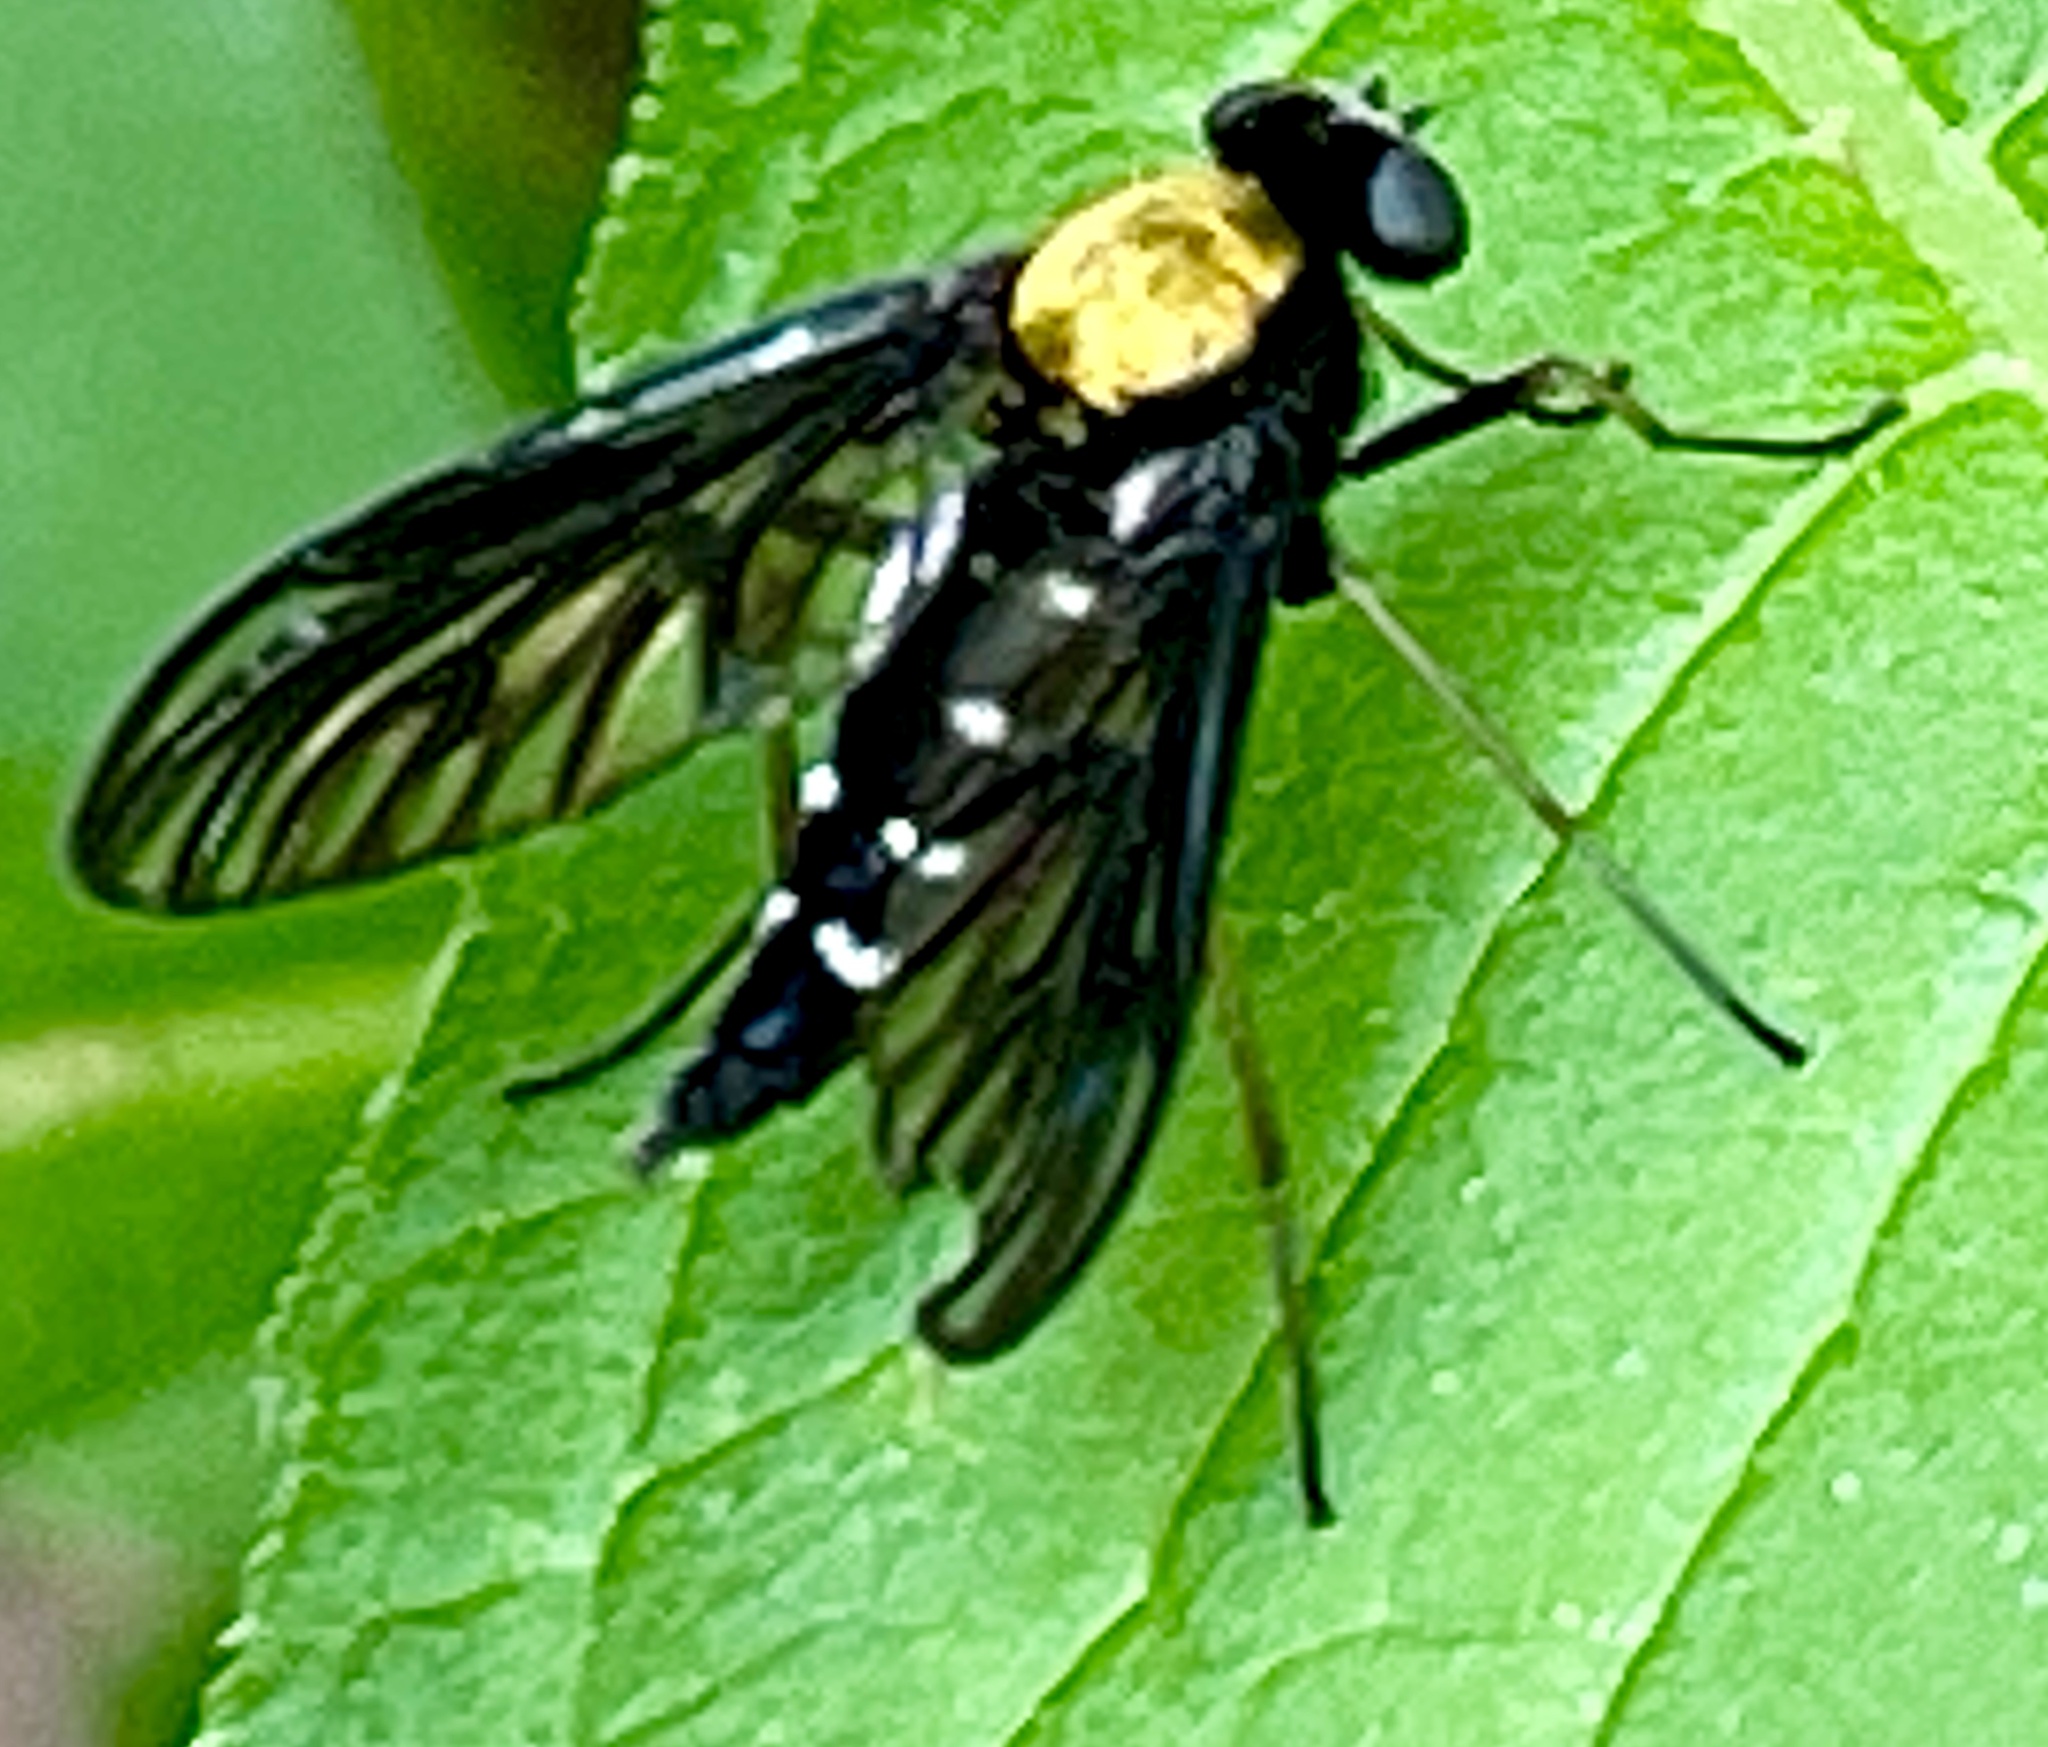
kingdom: Animalia
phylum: Arthropoda
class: Insecta
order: Diptera
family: Rhagionidae
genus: Chrysopilus
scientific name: Chrysopilus thoracicus
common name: Golden-backed snipe fly
